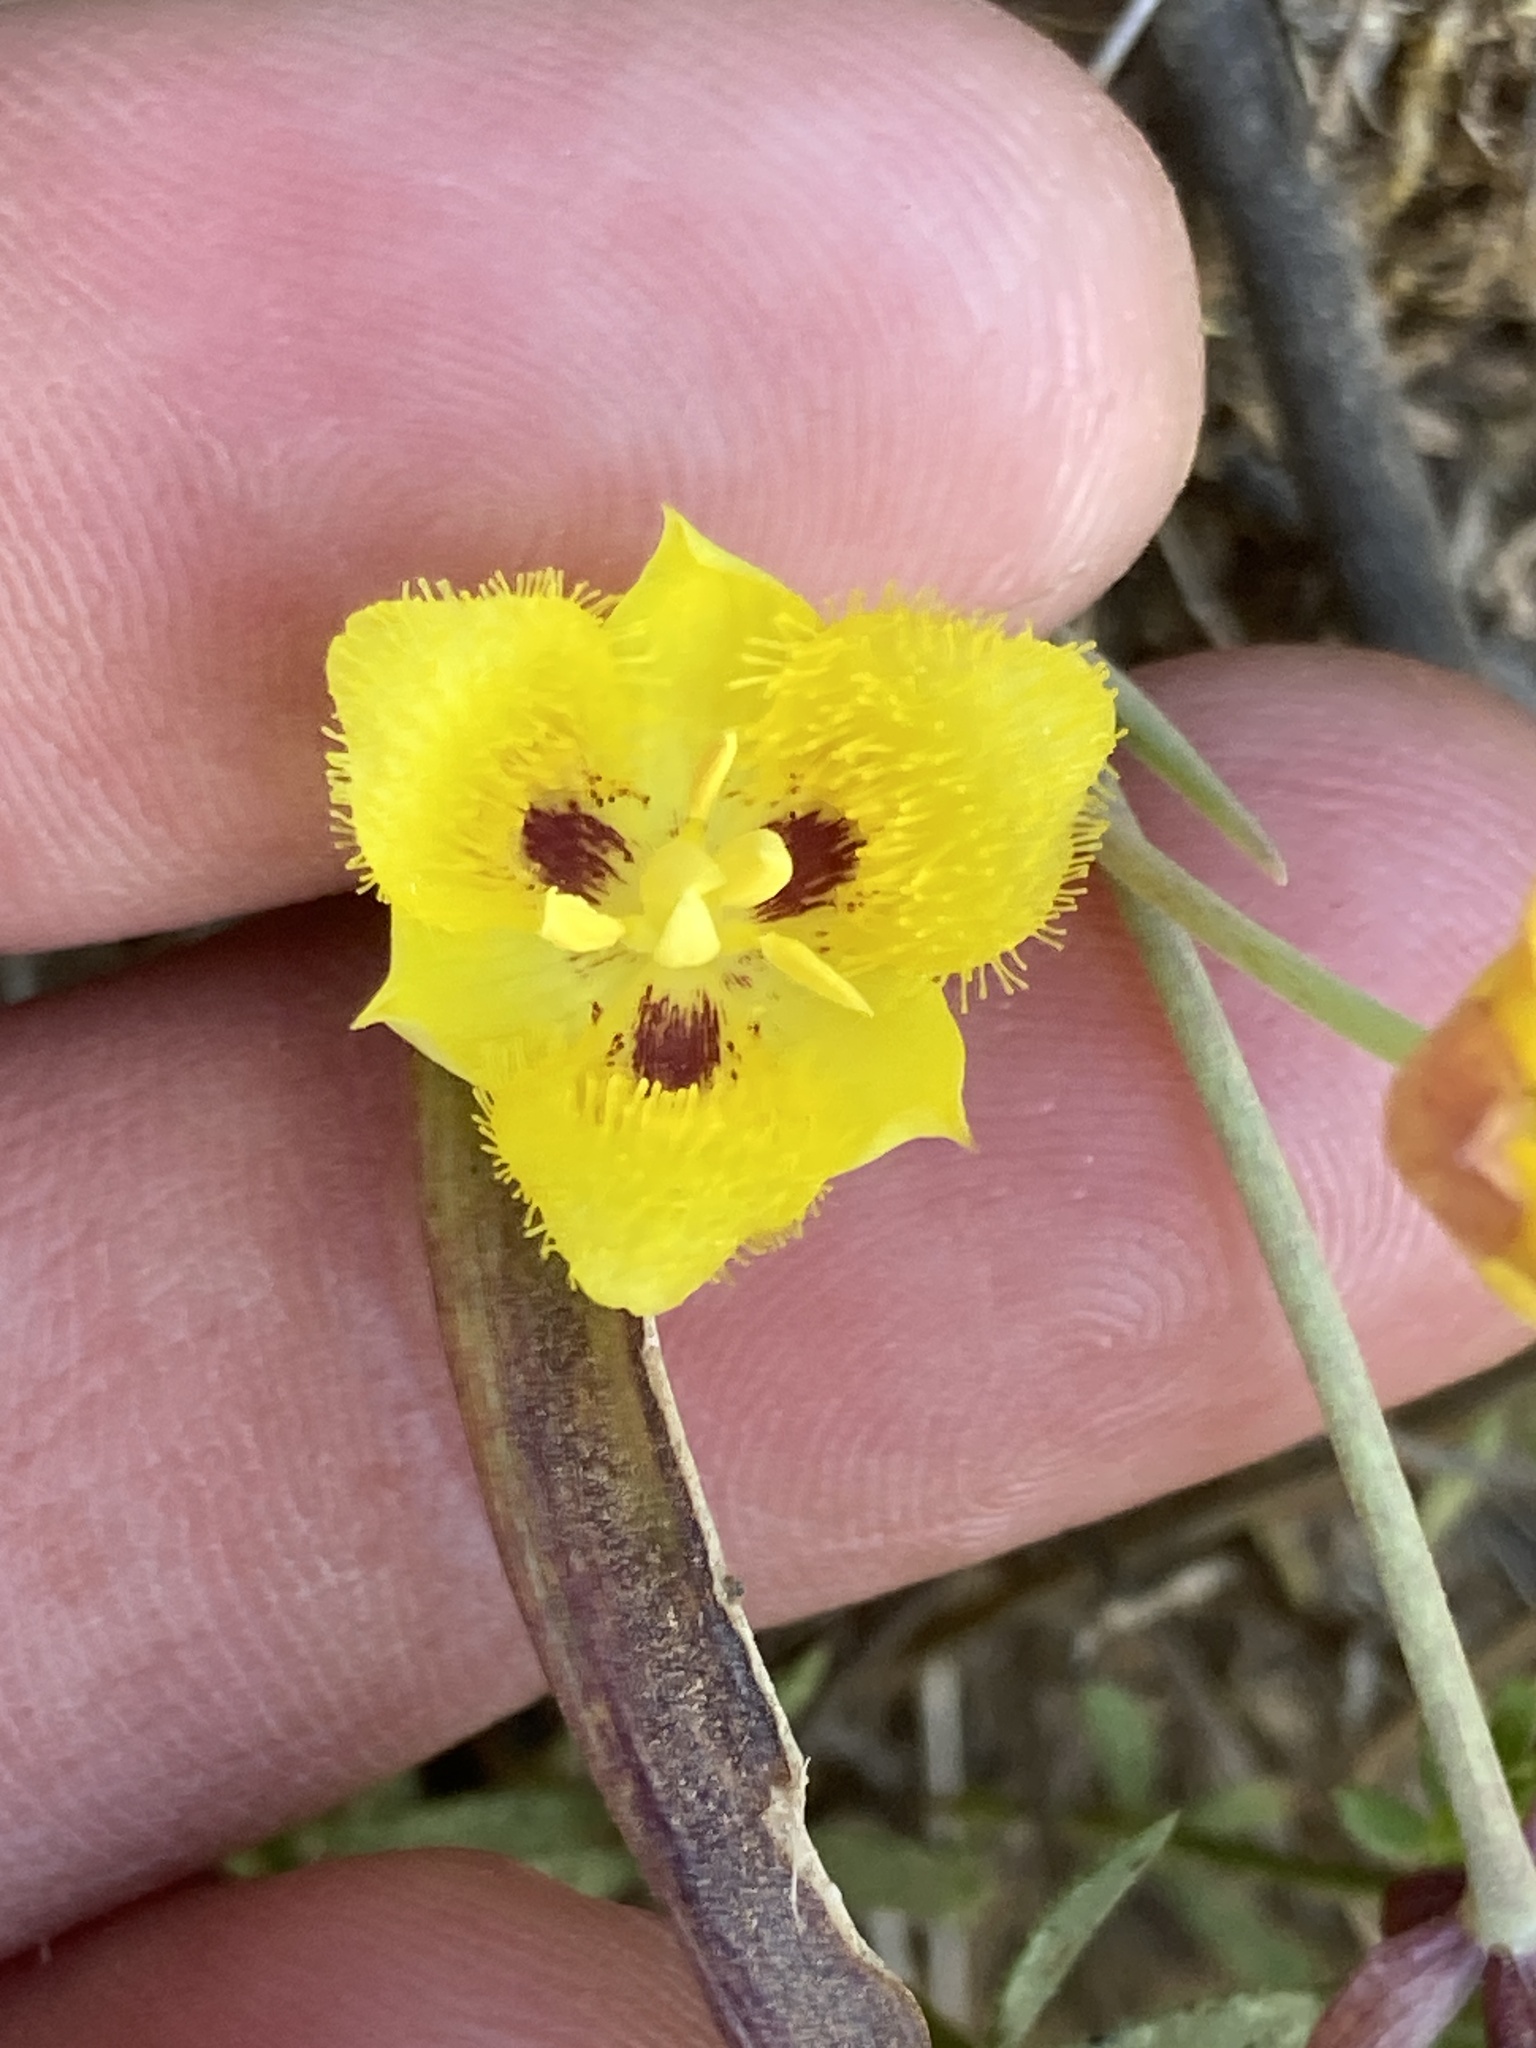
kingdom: Plantae
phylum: Tracheophyta
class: Liliopsida
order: Liliales
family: Liliaceae
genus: Calochortus
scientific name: Calochortus monophyllus
